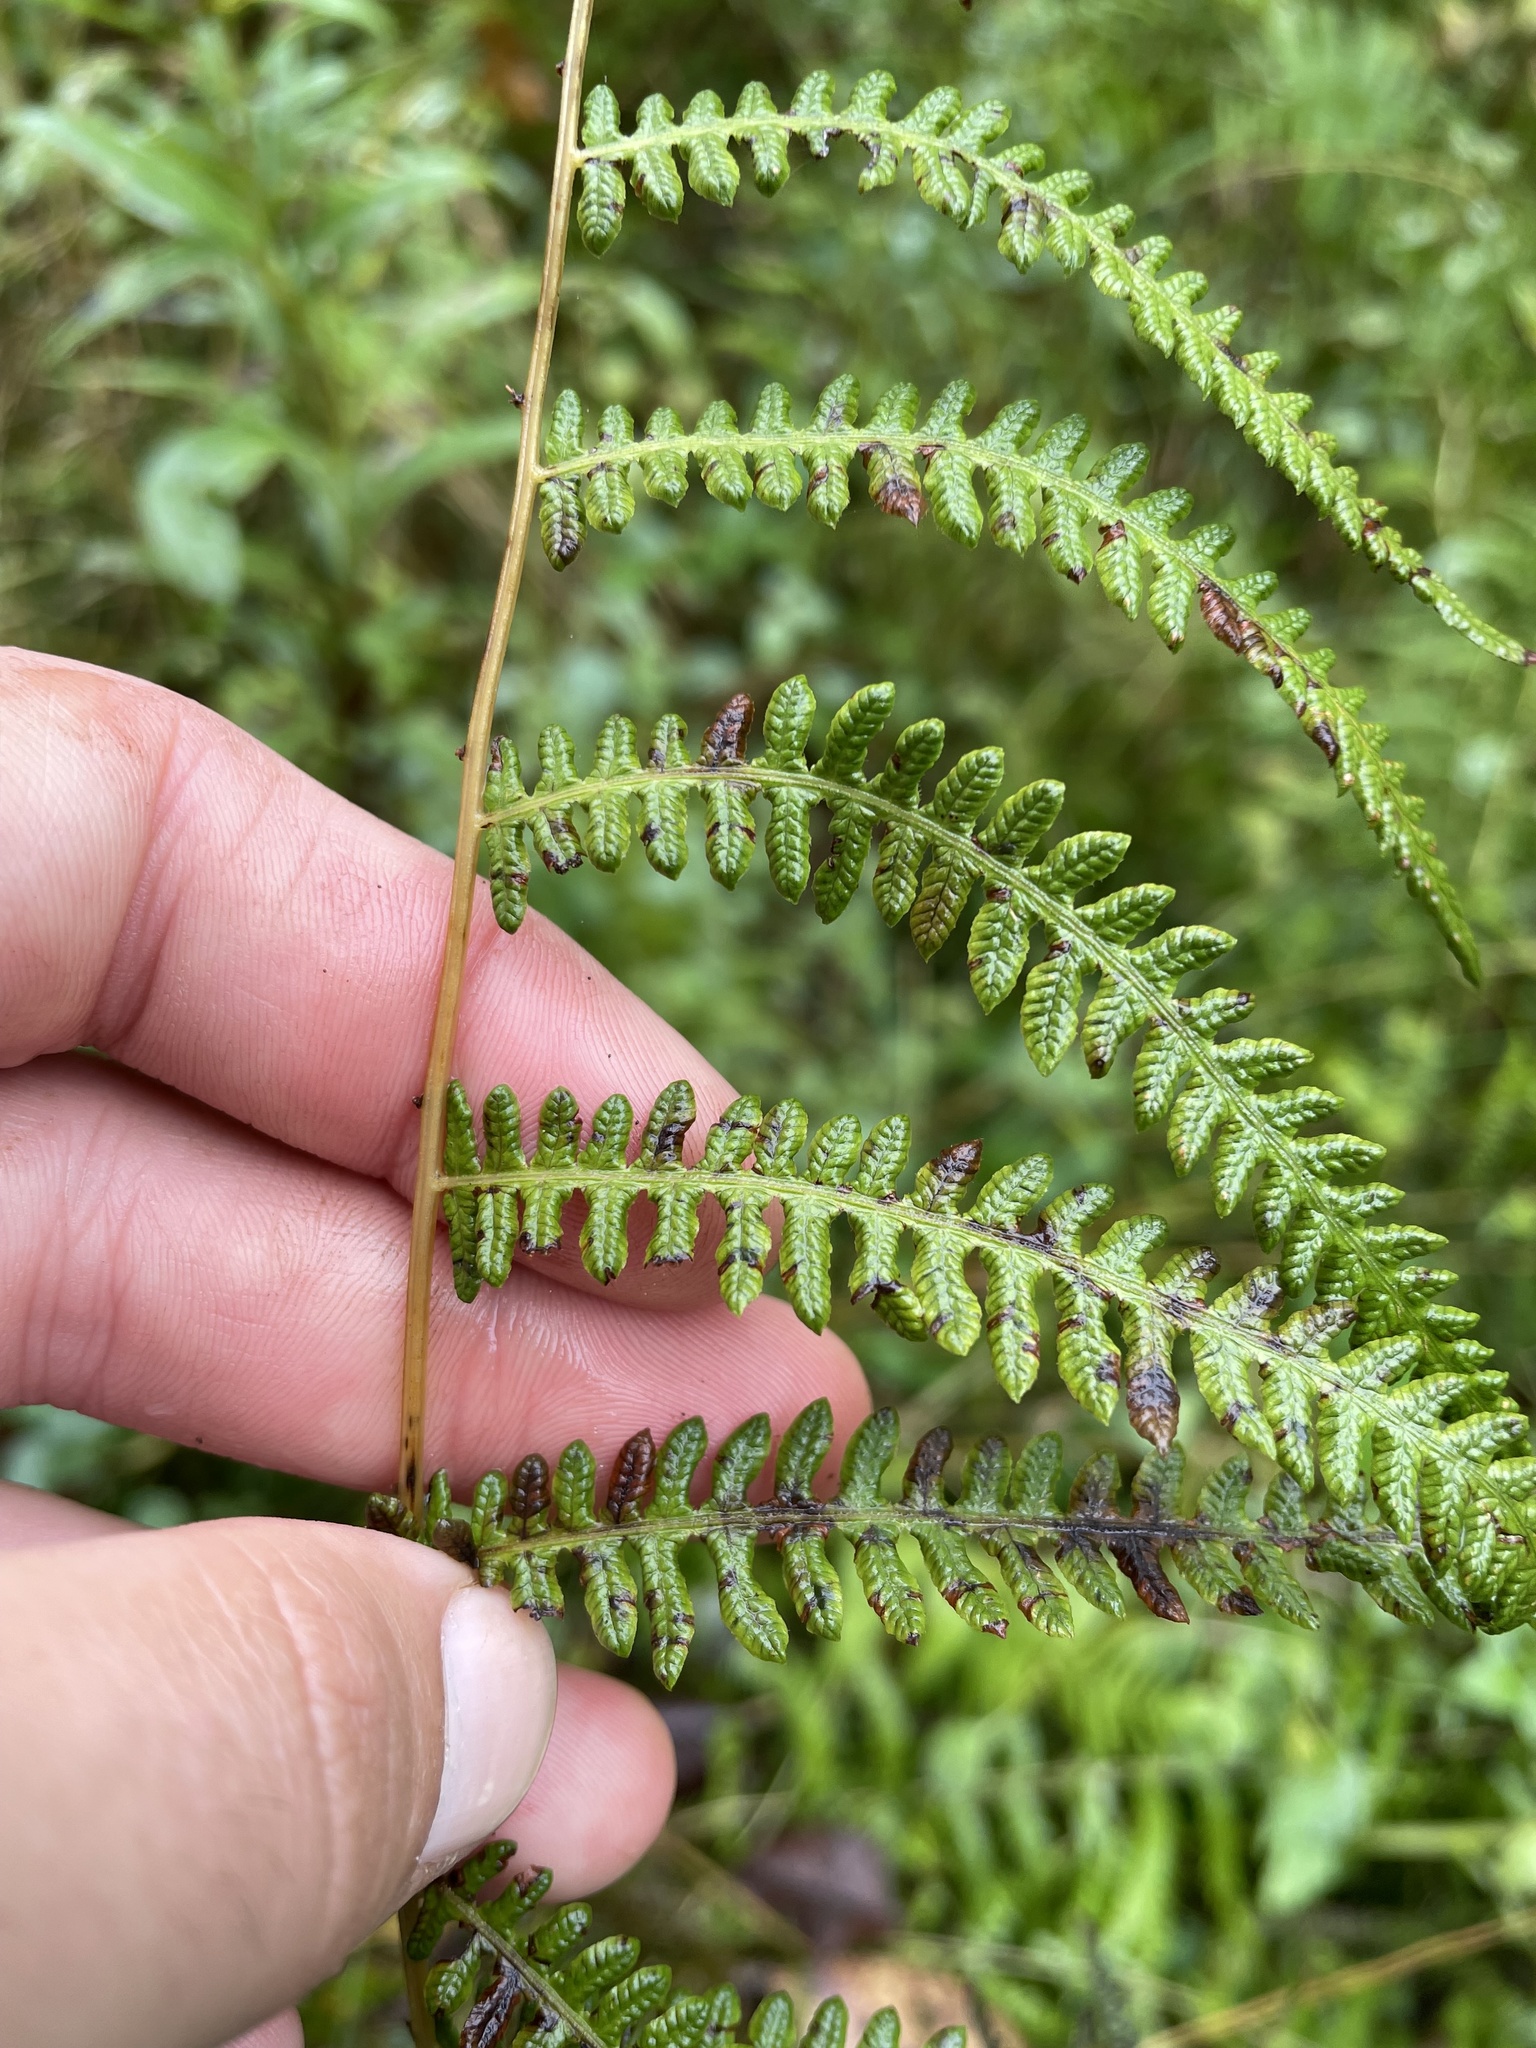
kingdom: Plantae
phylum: Tracheophyta
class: Polypodiopsida
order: Polypodiales
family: Thelypteridaceae
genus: Thelypteris
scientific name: Thelypteris palustris
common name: Marsh fern
